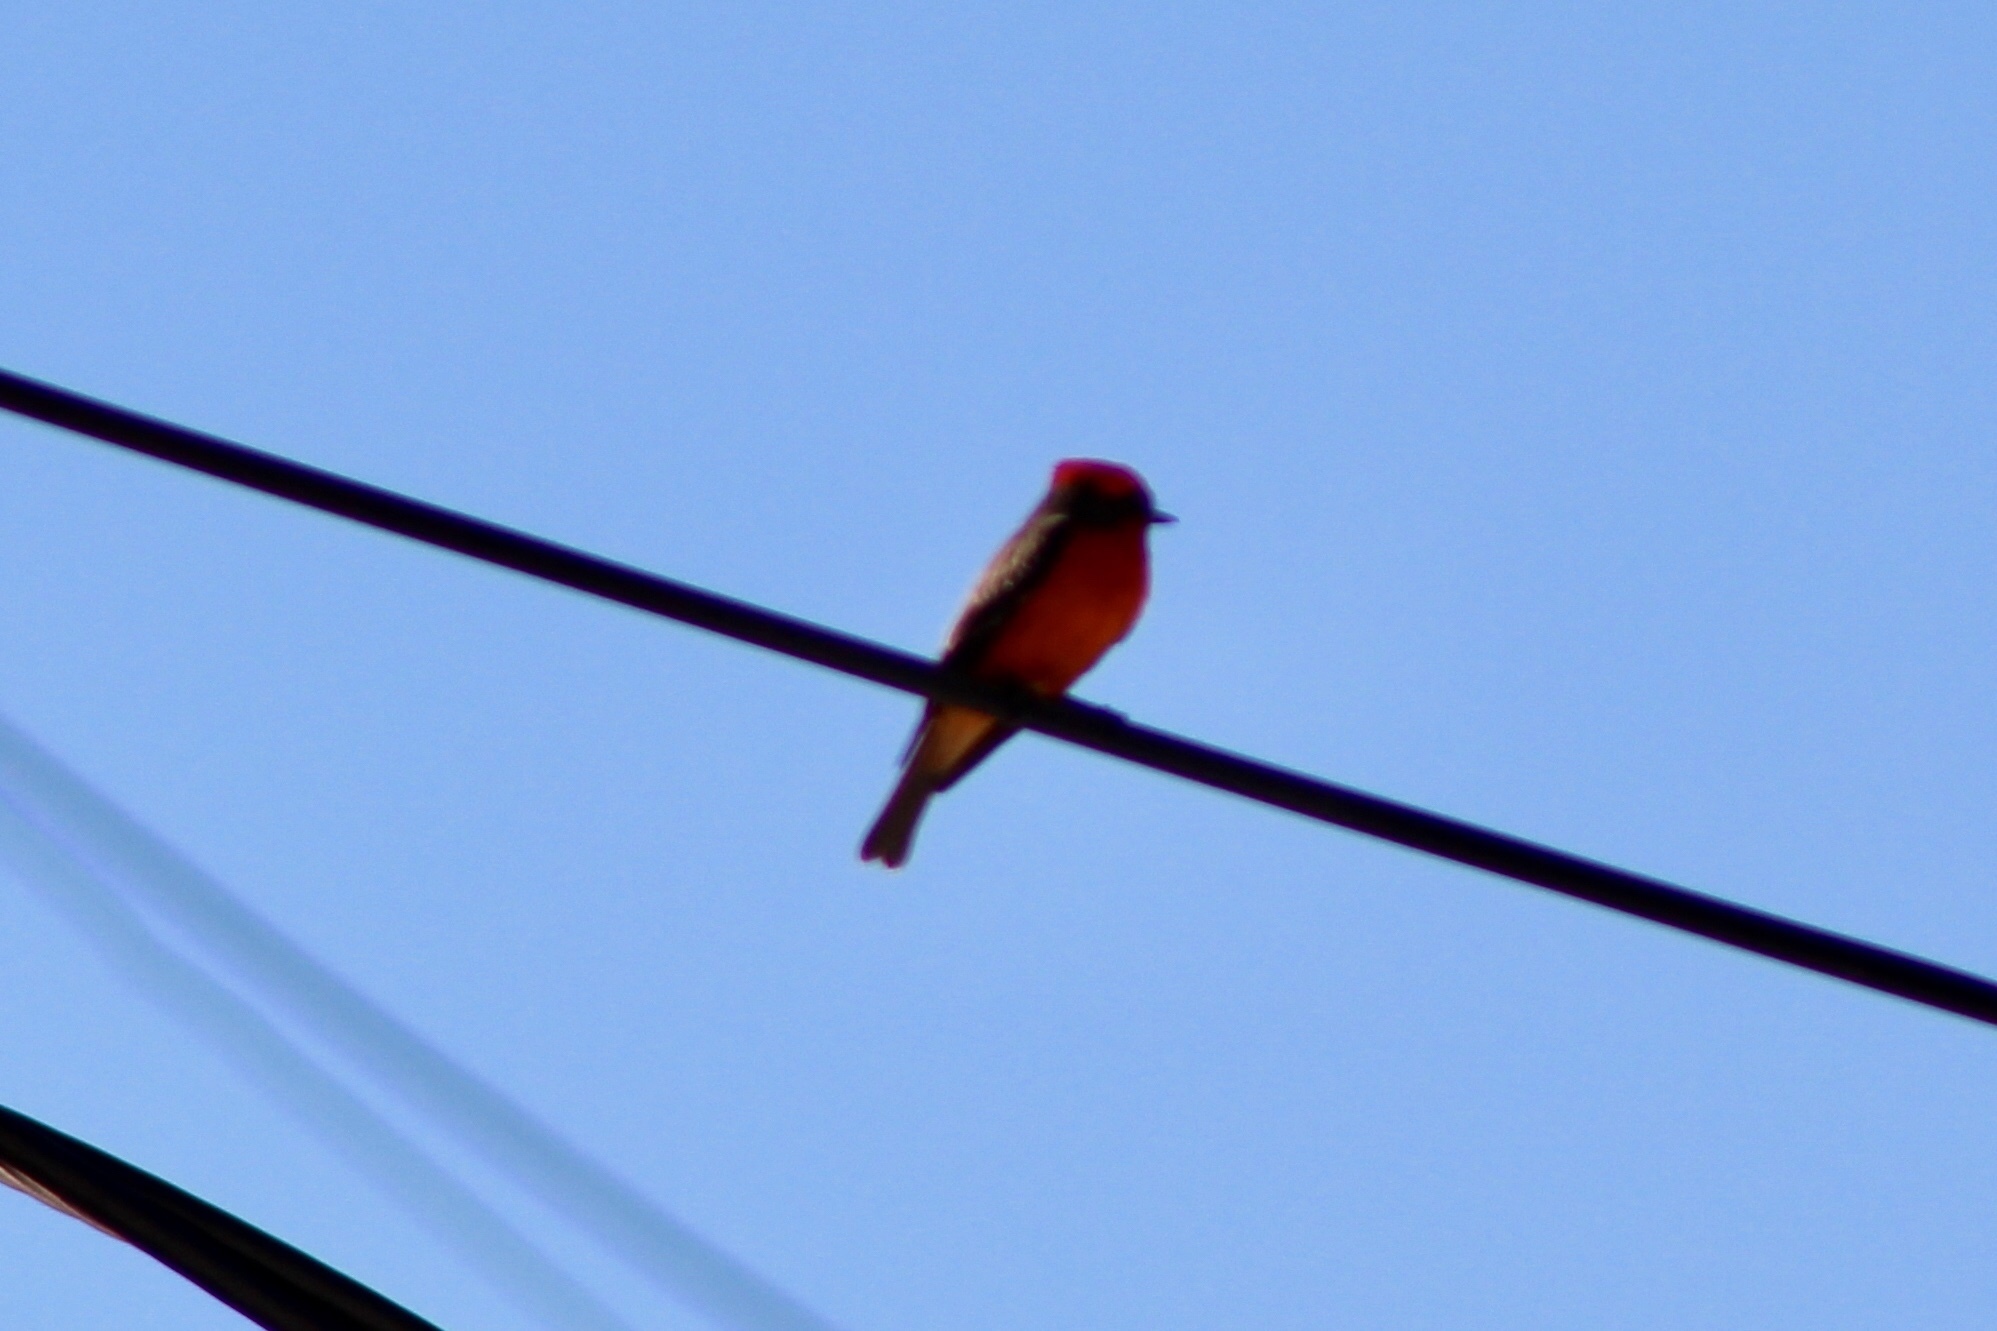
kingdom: Animalia
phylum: Chordata
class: Aves
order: Passeriformes
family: Tyrannidae
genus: Pyrocephalus
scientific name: Pyrocephalus rubinus
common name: Vermilion flycatcher
